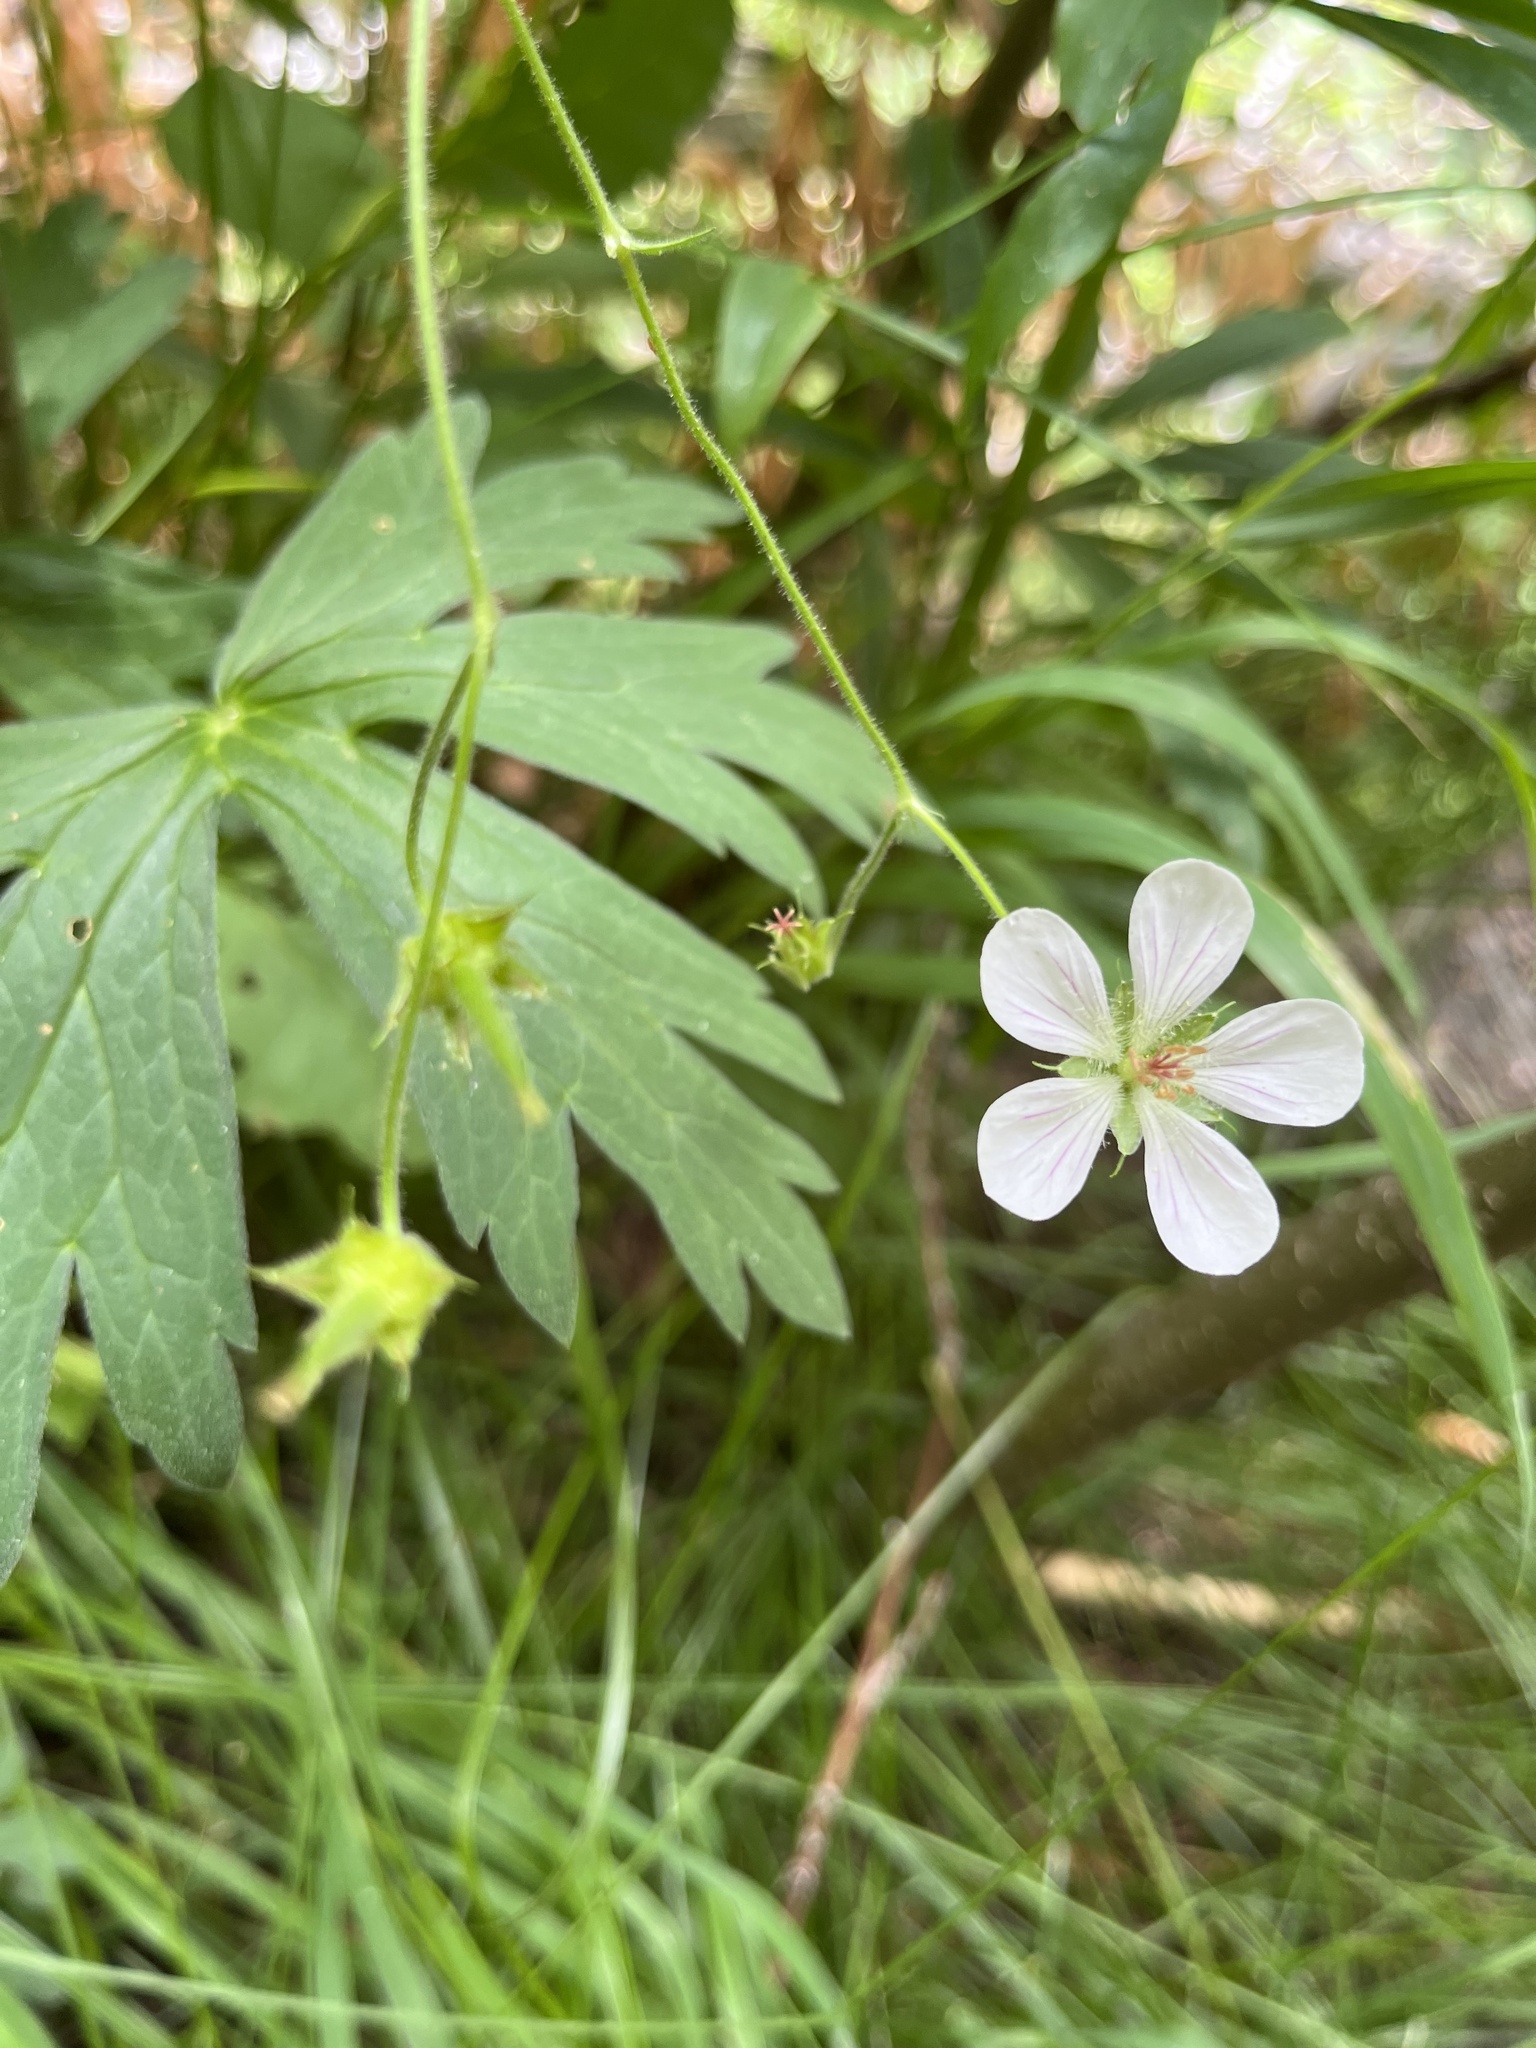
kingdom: Plantae
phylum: Tracheophyta
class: Magnoliopsida
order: Geraniales
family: Geraniaceae
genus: Geranium
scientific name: Geranium richardsonii
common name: Richardson's crane's-bill
